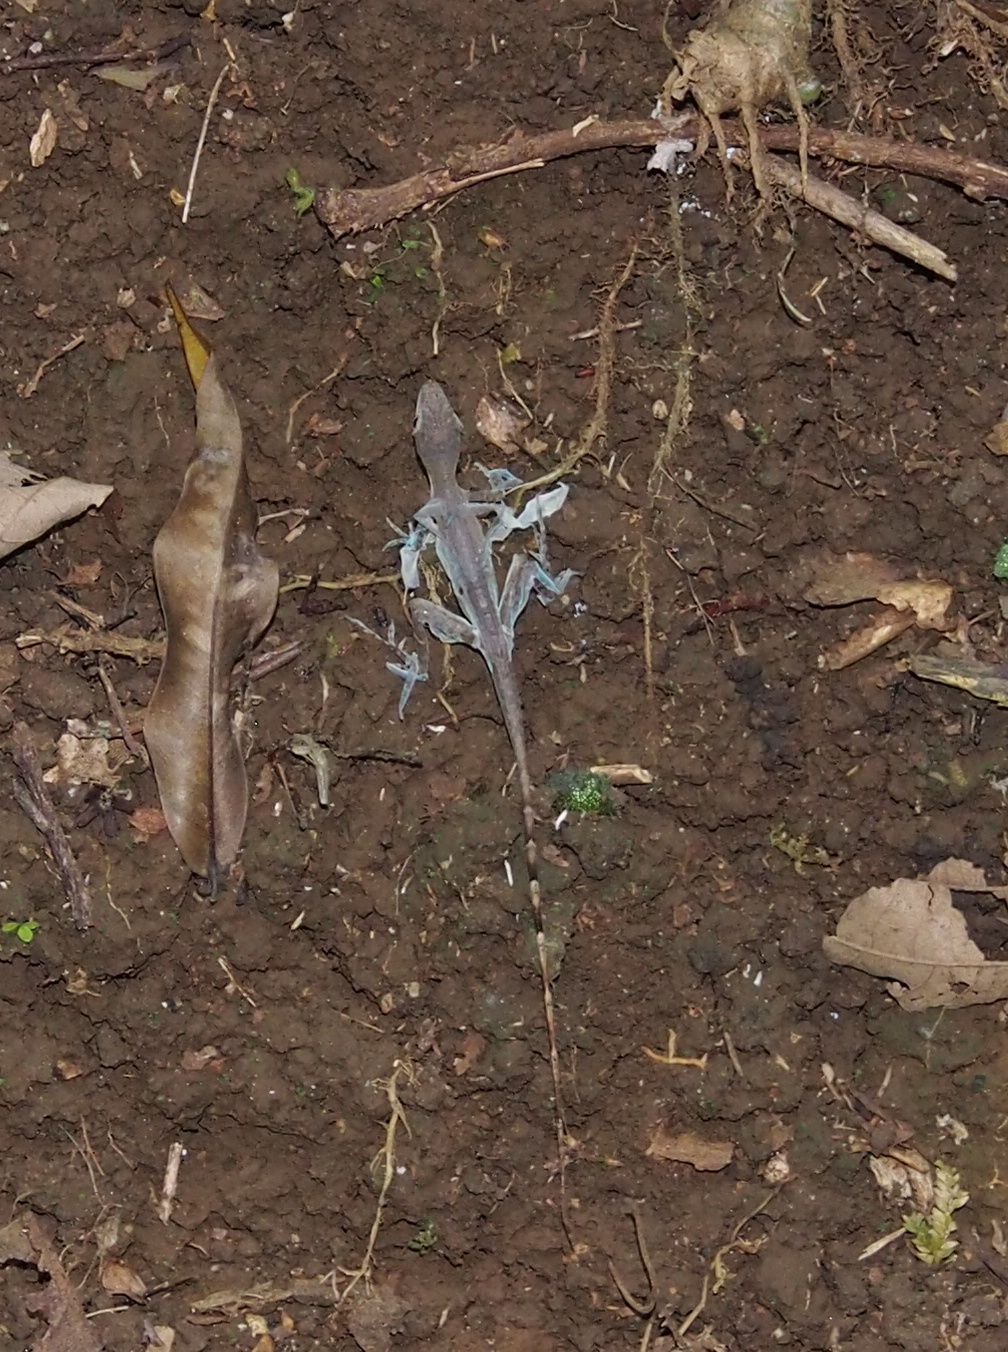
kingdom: Animalia
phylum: Chordata
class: Squamata
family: Dactyloidae
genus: Anolis
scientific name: Anolis limifrons
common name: Border anole
